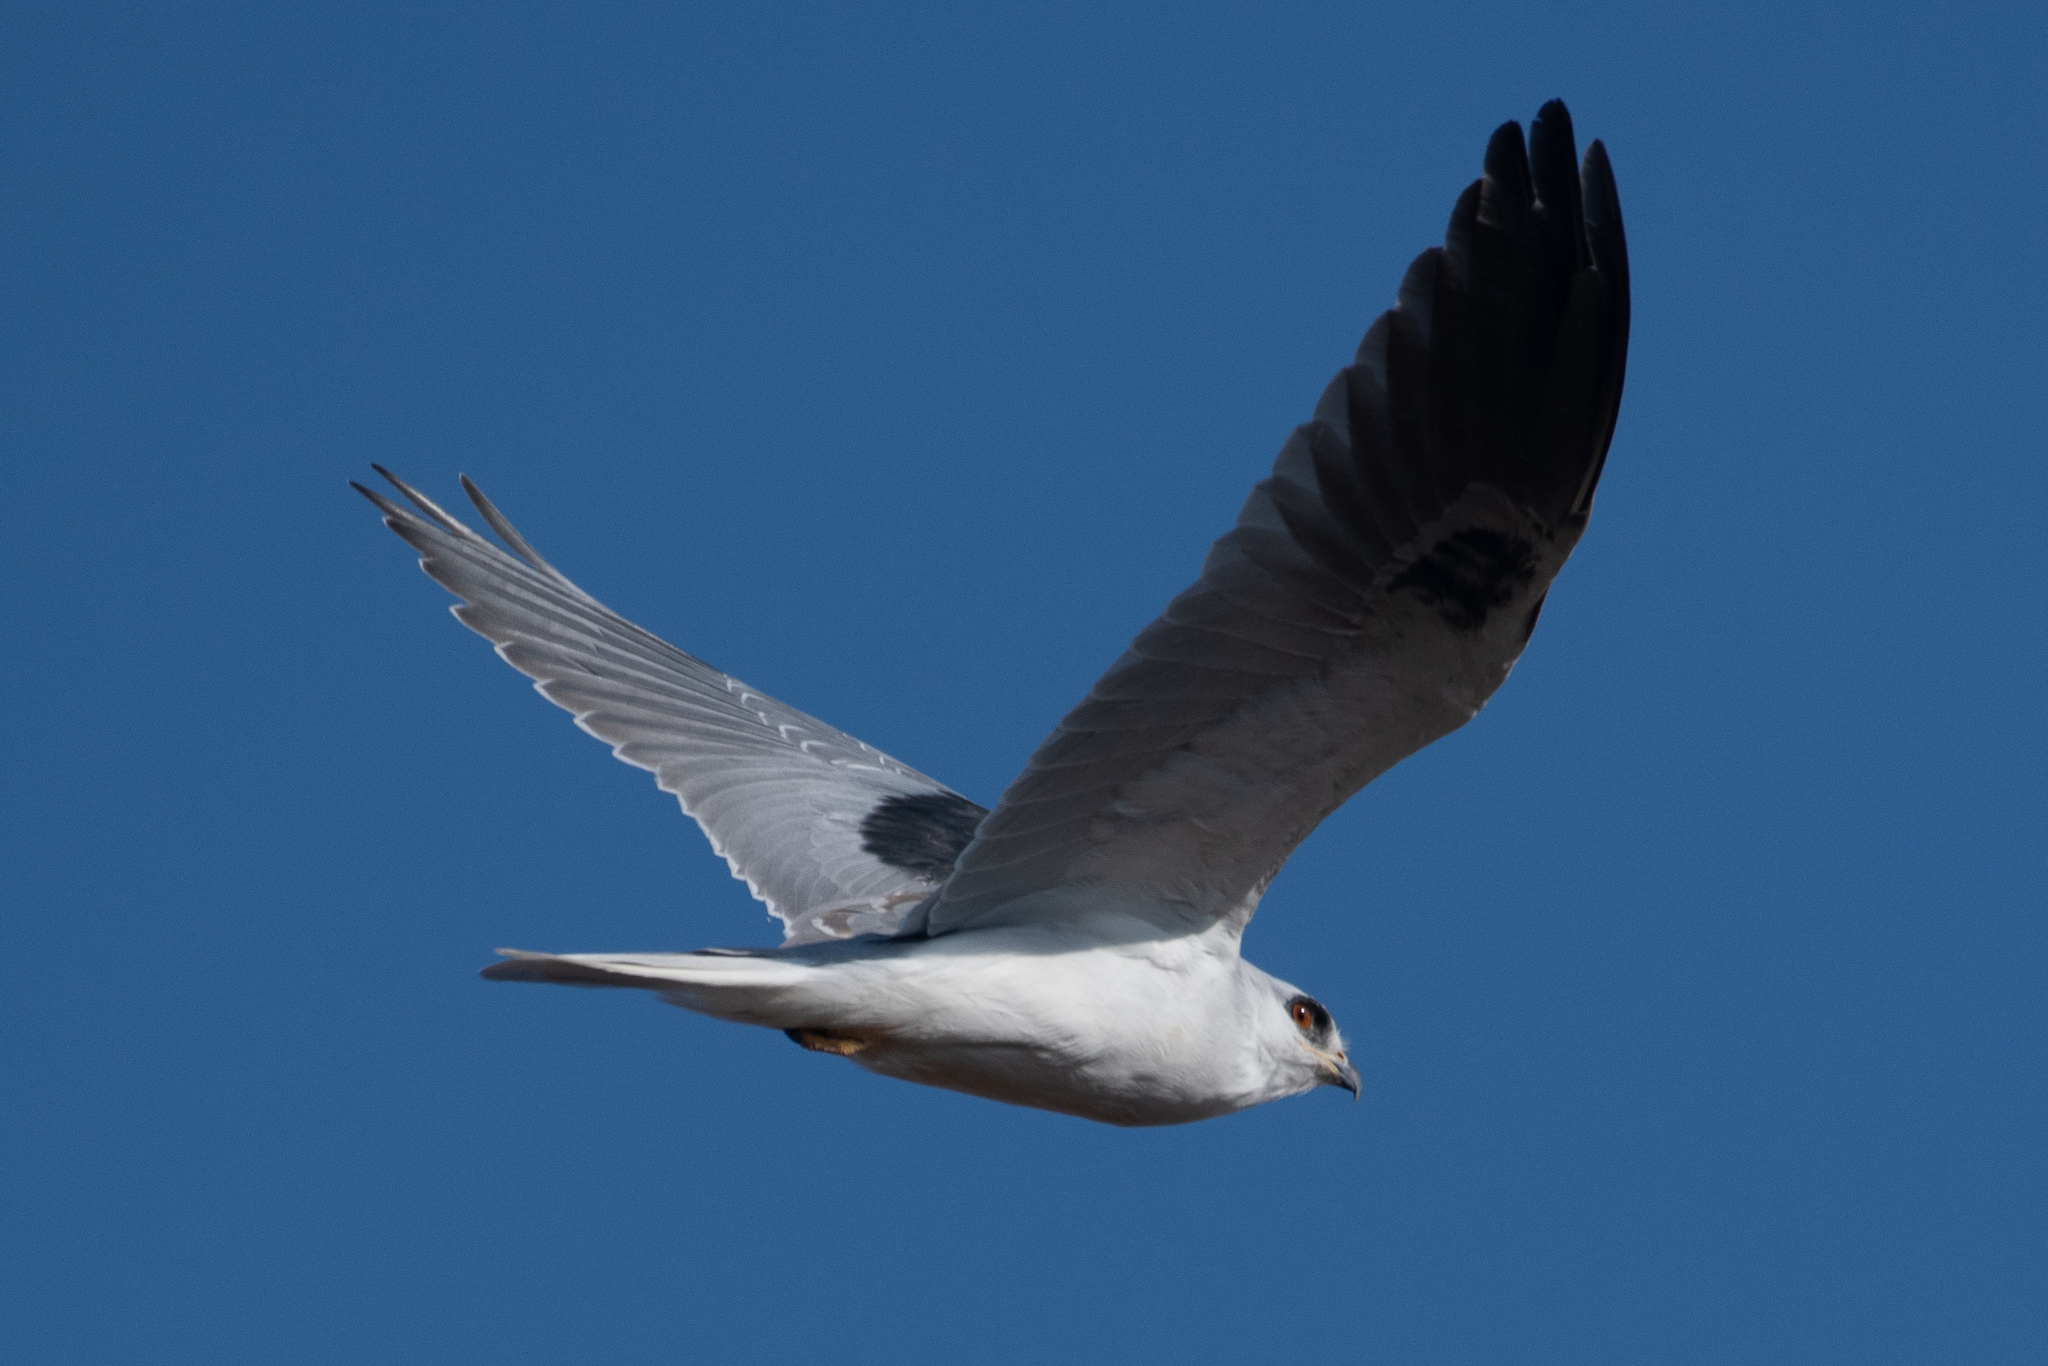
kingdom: Animalia
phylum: Chordata
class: Aves
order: Accipitriformes
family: Accipitridae
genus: Elanus
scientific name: Elanus leucurus
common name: White-tailed kite
